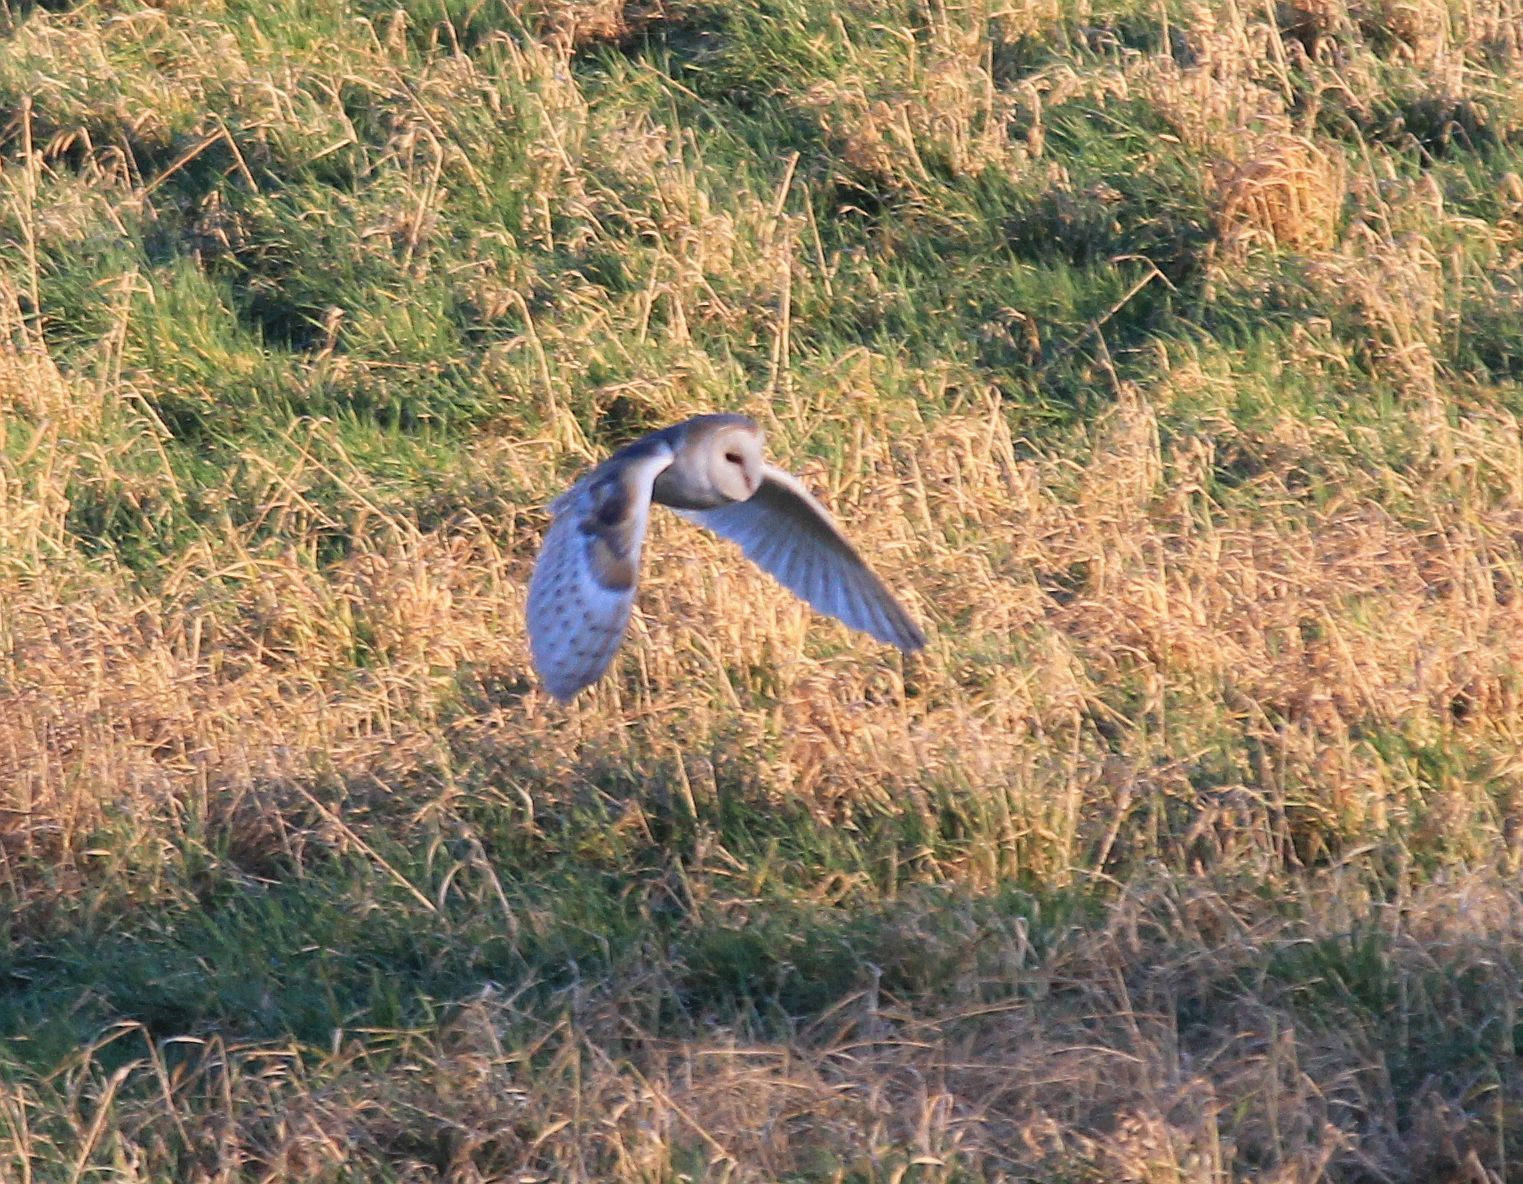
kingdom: Animalia
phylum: Chordata
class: Aves
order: Strigiformes
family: Tytonidae
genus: Tyto
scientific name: Tyto alba
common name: Barn owl
